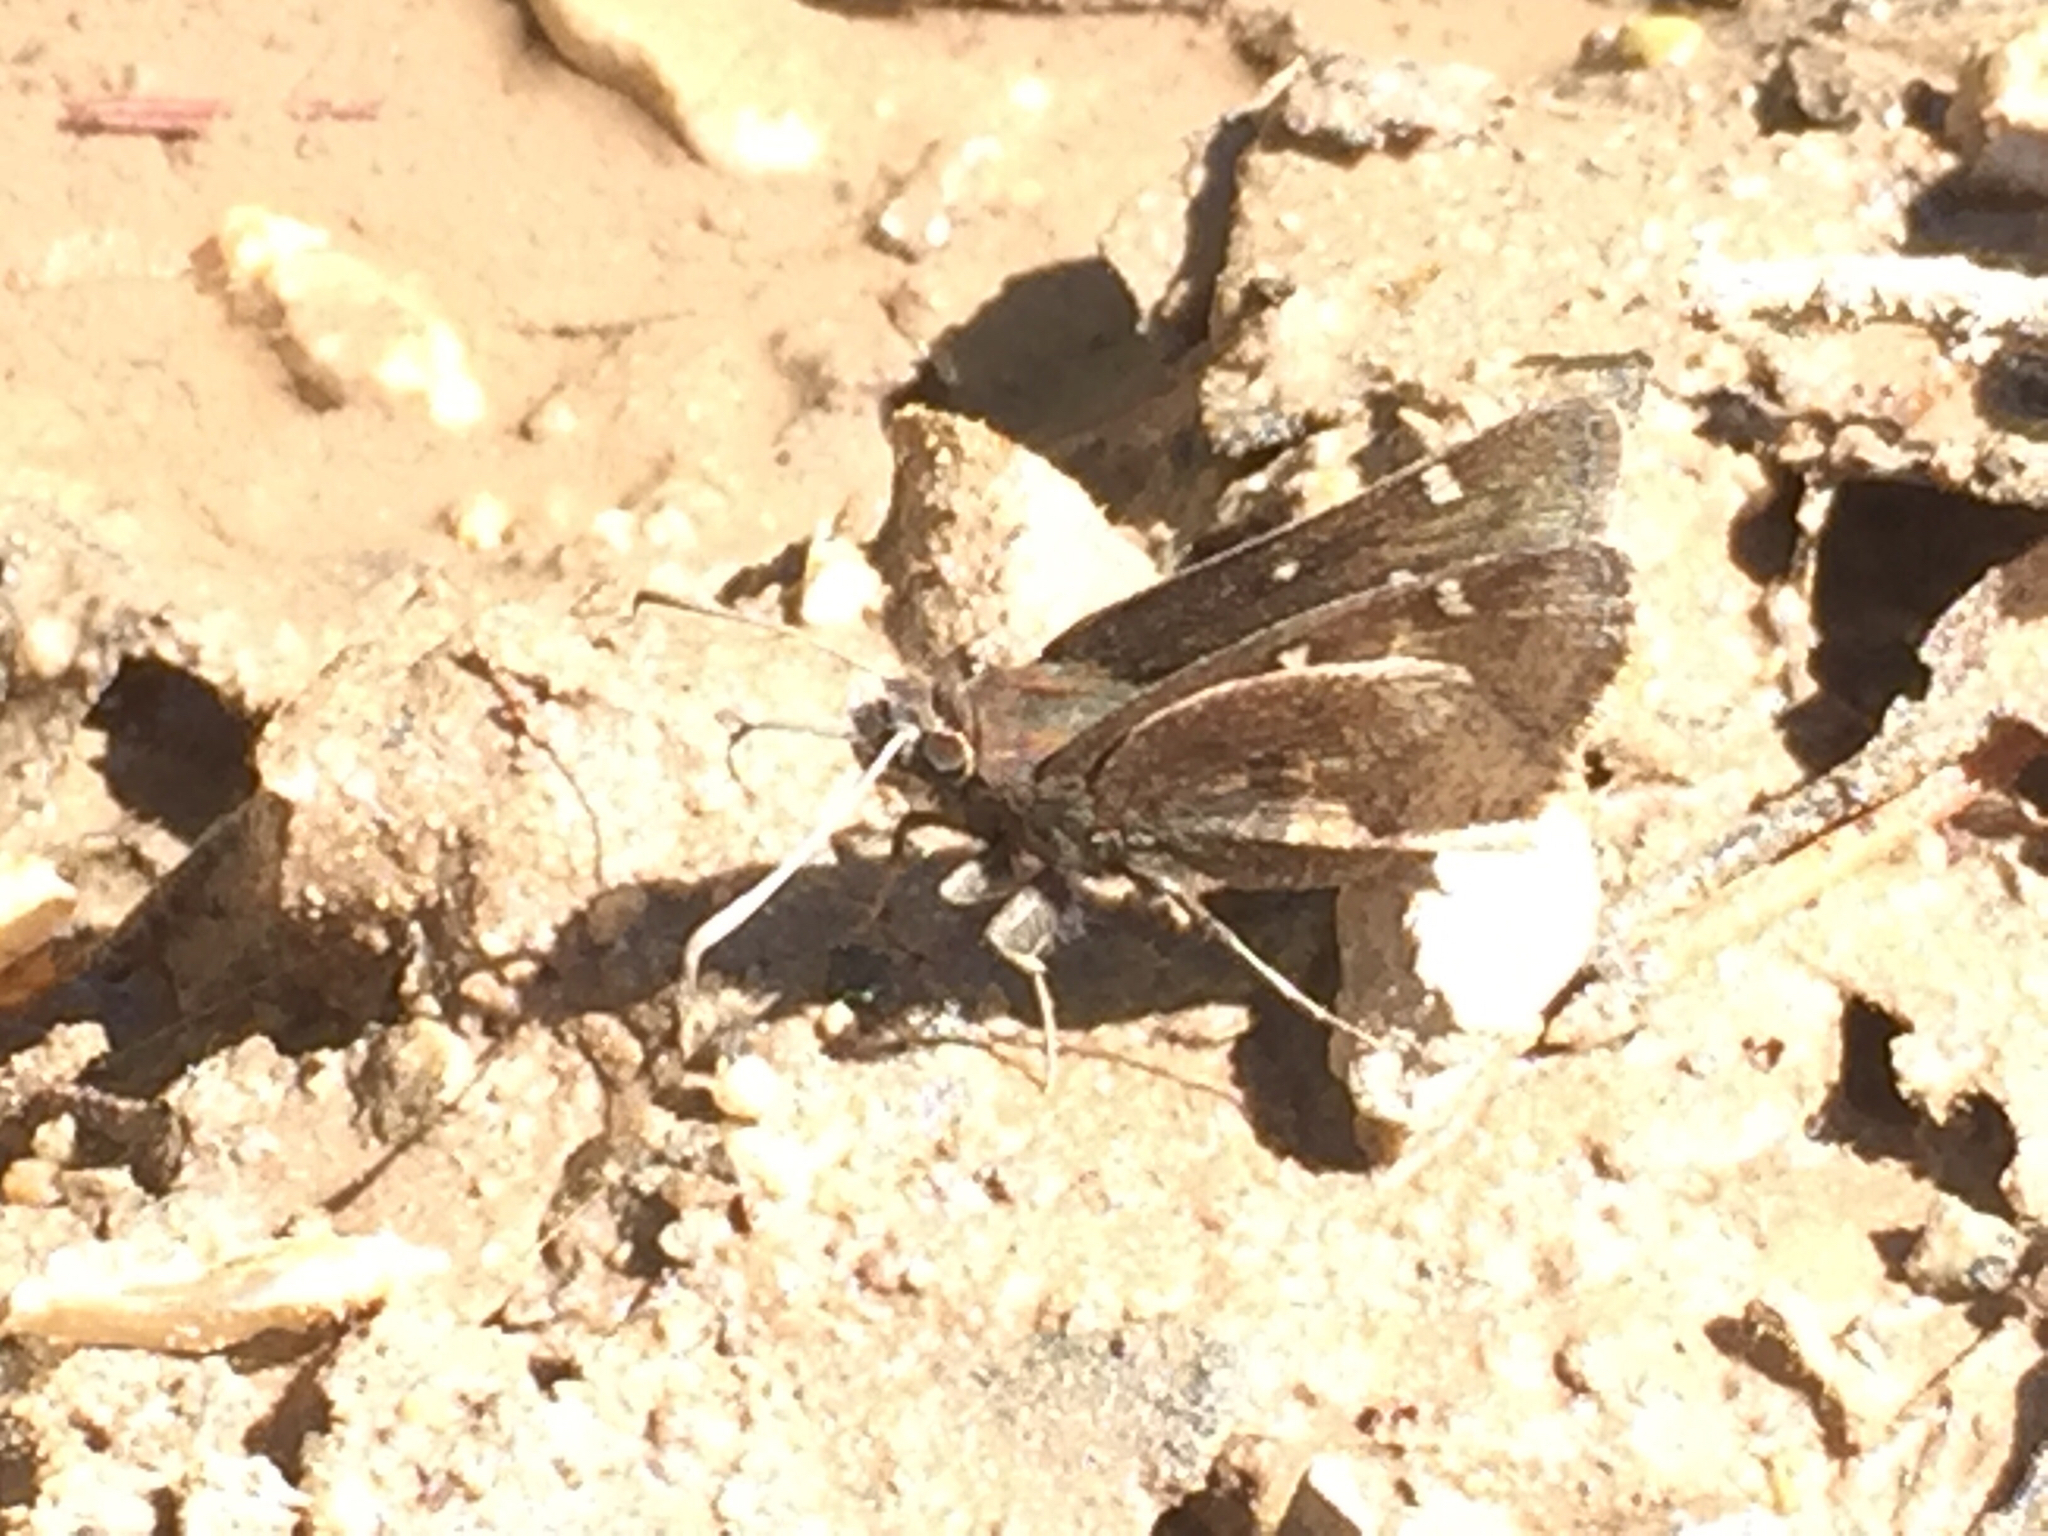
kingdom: Animalia
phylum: Arthropoda
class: Insecta
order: Lepidoptera
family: Hesperiidae
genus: Thorybes
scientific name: Thorybes mexicana
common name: Mexican cloudywing
